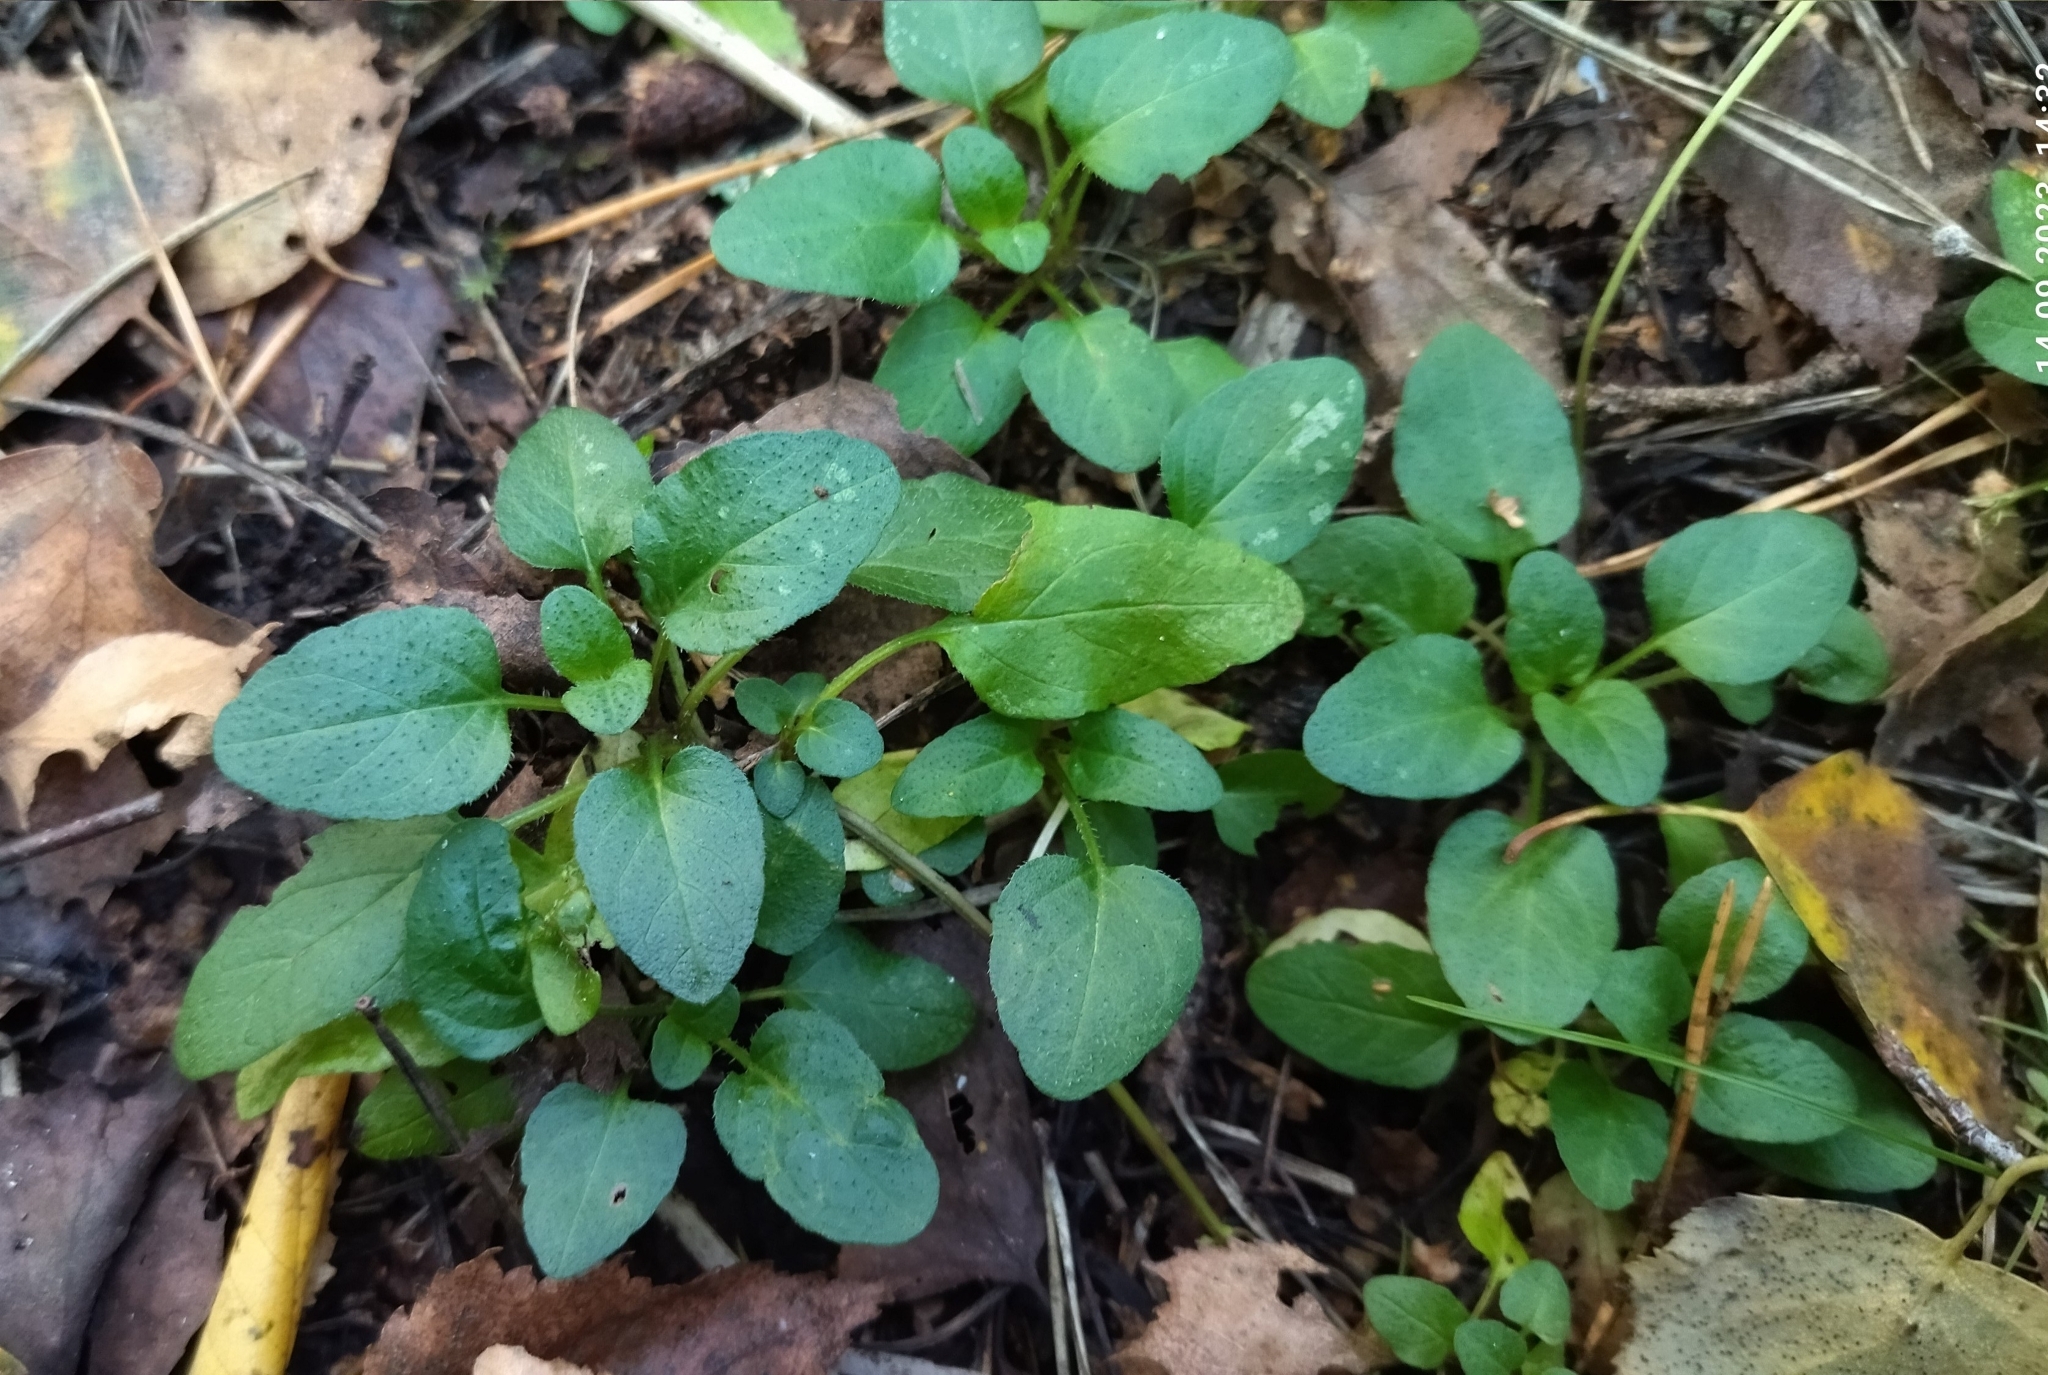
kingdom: Plantae
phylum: Tracheophyta
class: Magnoliopsida
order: Lamiales
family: Lamiaceae
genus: Prunella
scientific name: Prunella vulgaris
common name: Heal-all
